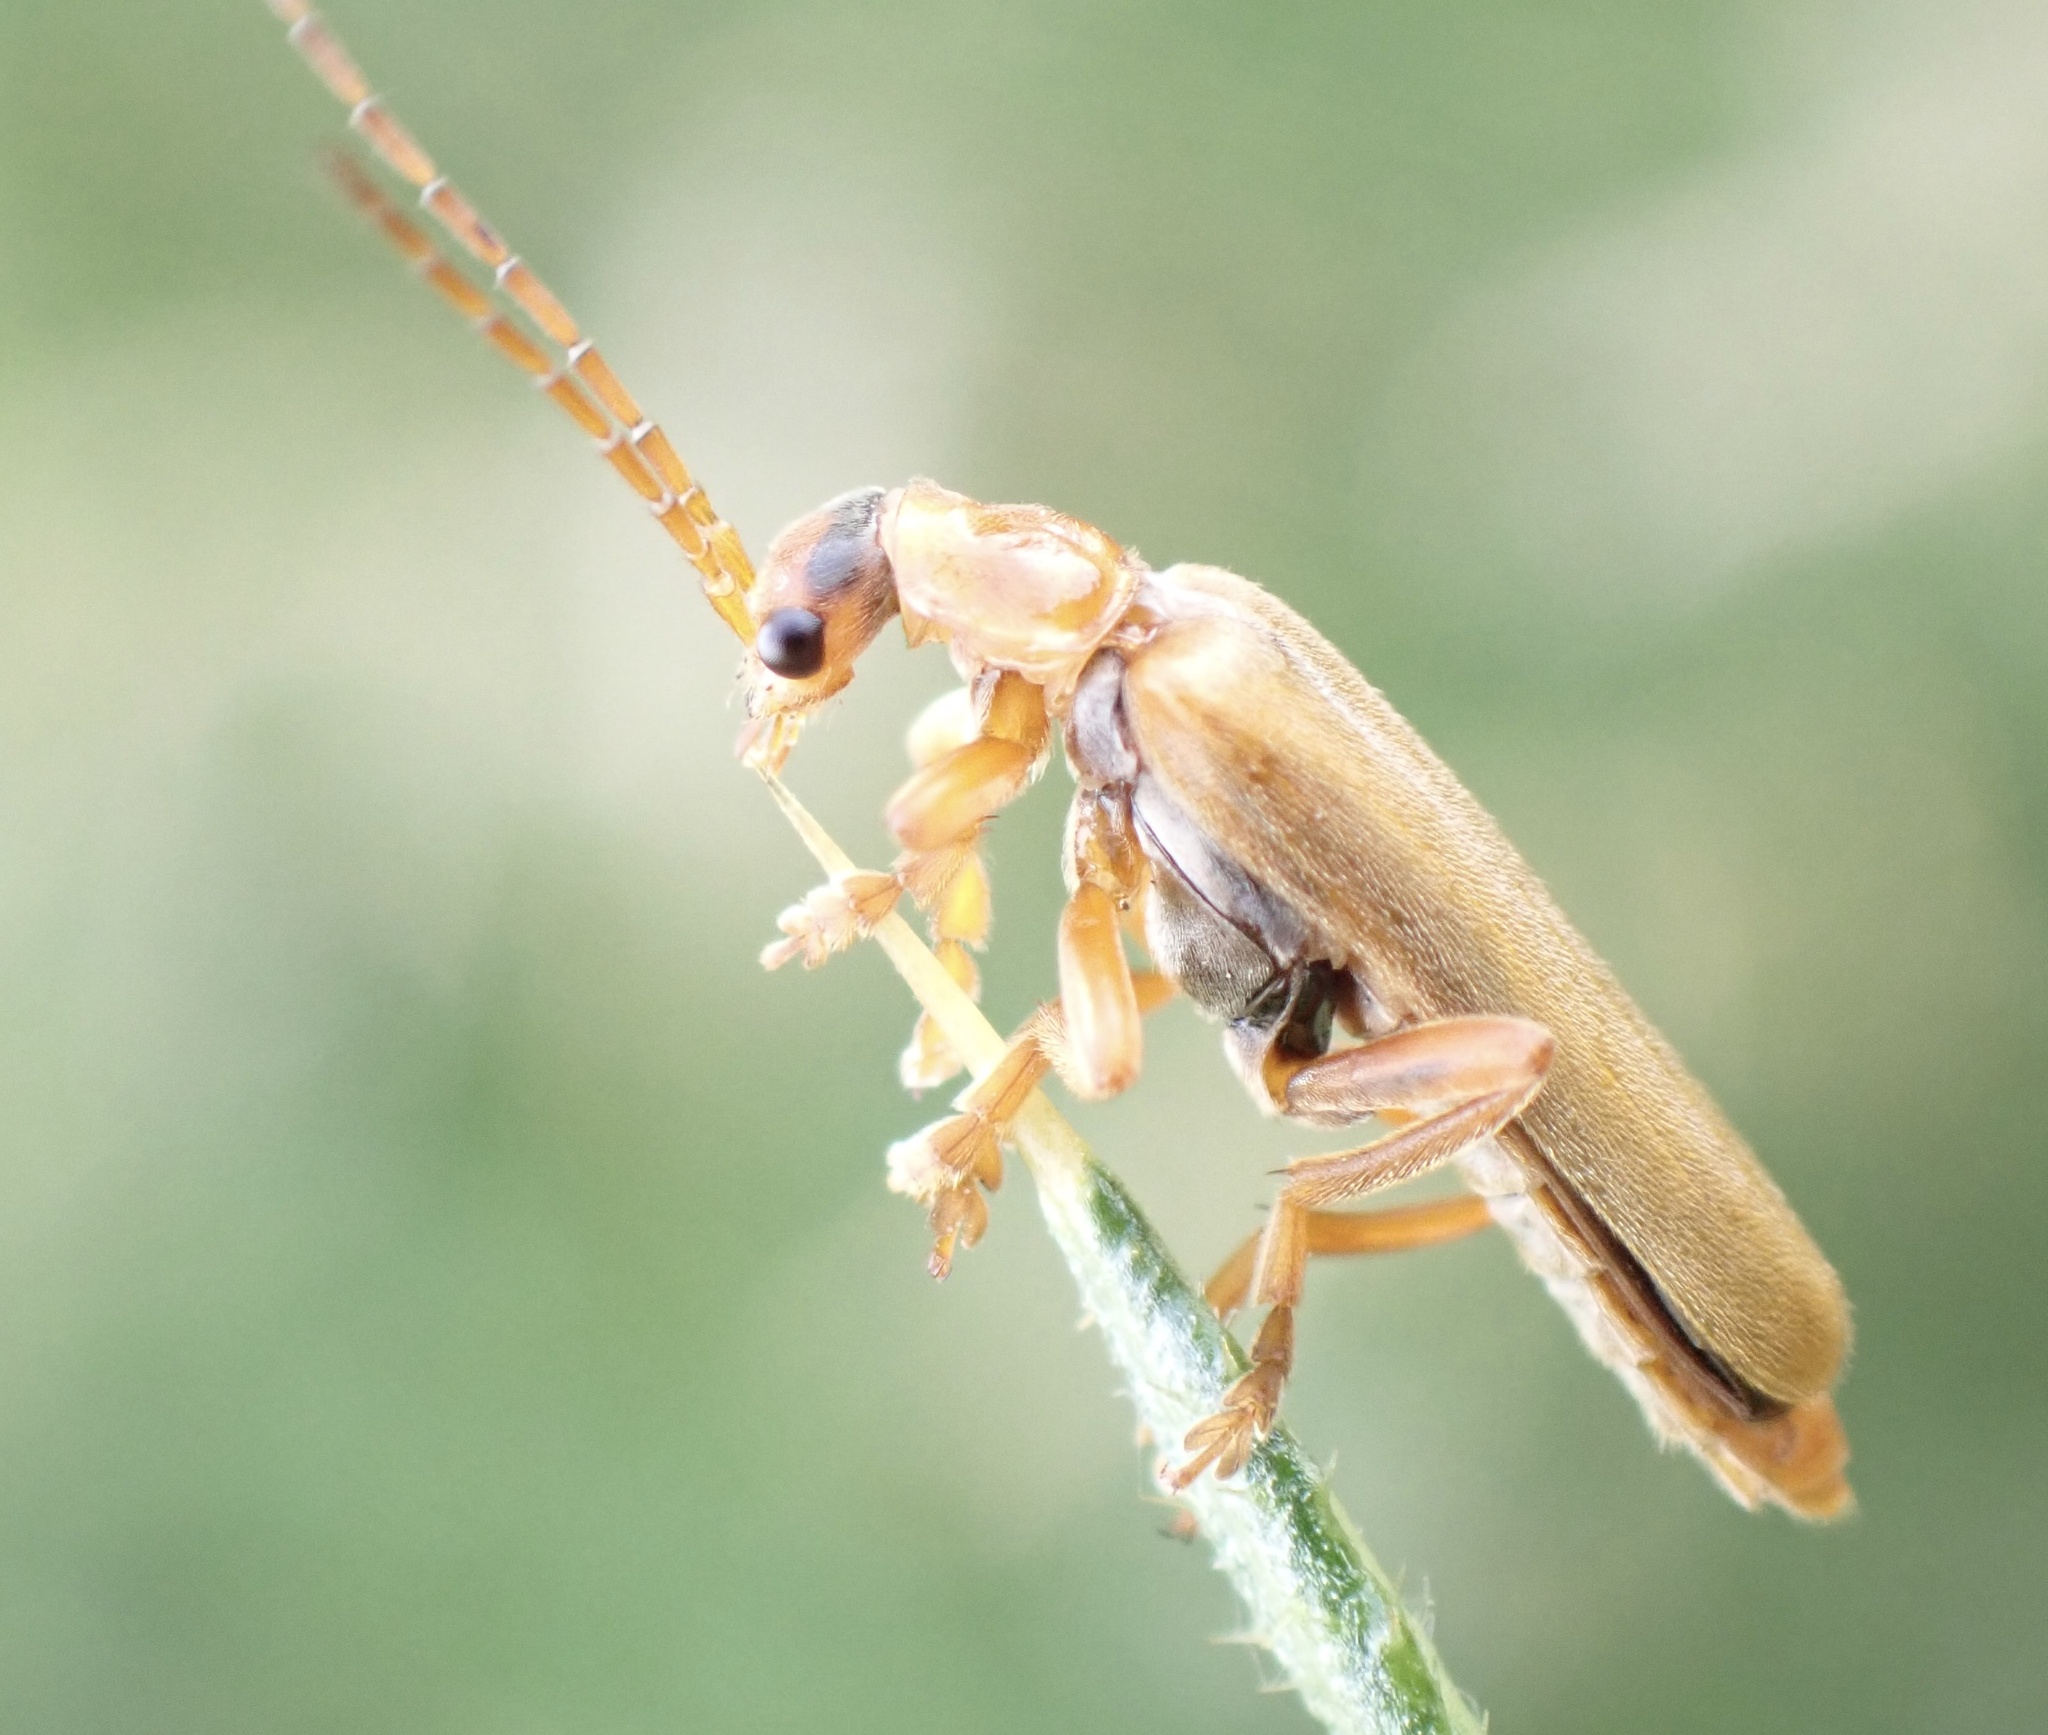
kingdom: Animalia
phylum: Arthropoda
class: Insecta
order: Coleoptera
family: Cantharidae
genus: Cantharis
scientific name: Cantharis rufa
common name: Red-spotted soldier beetle
